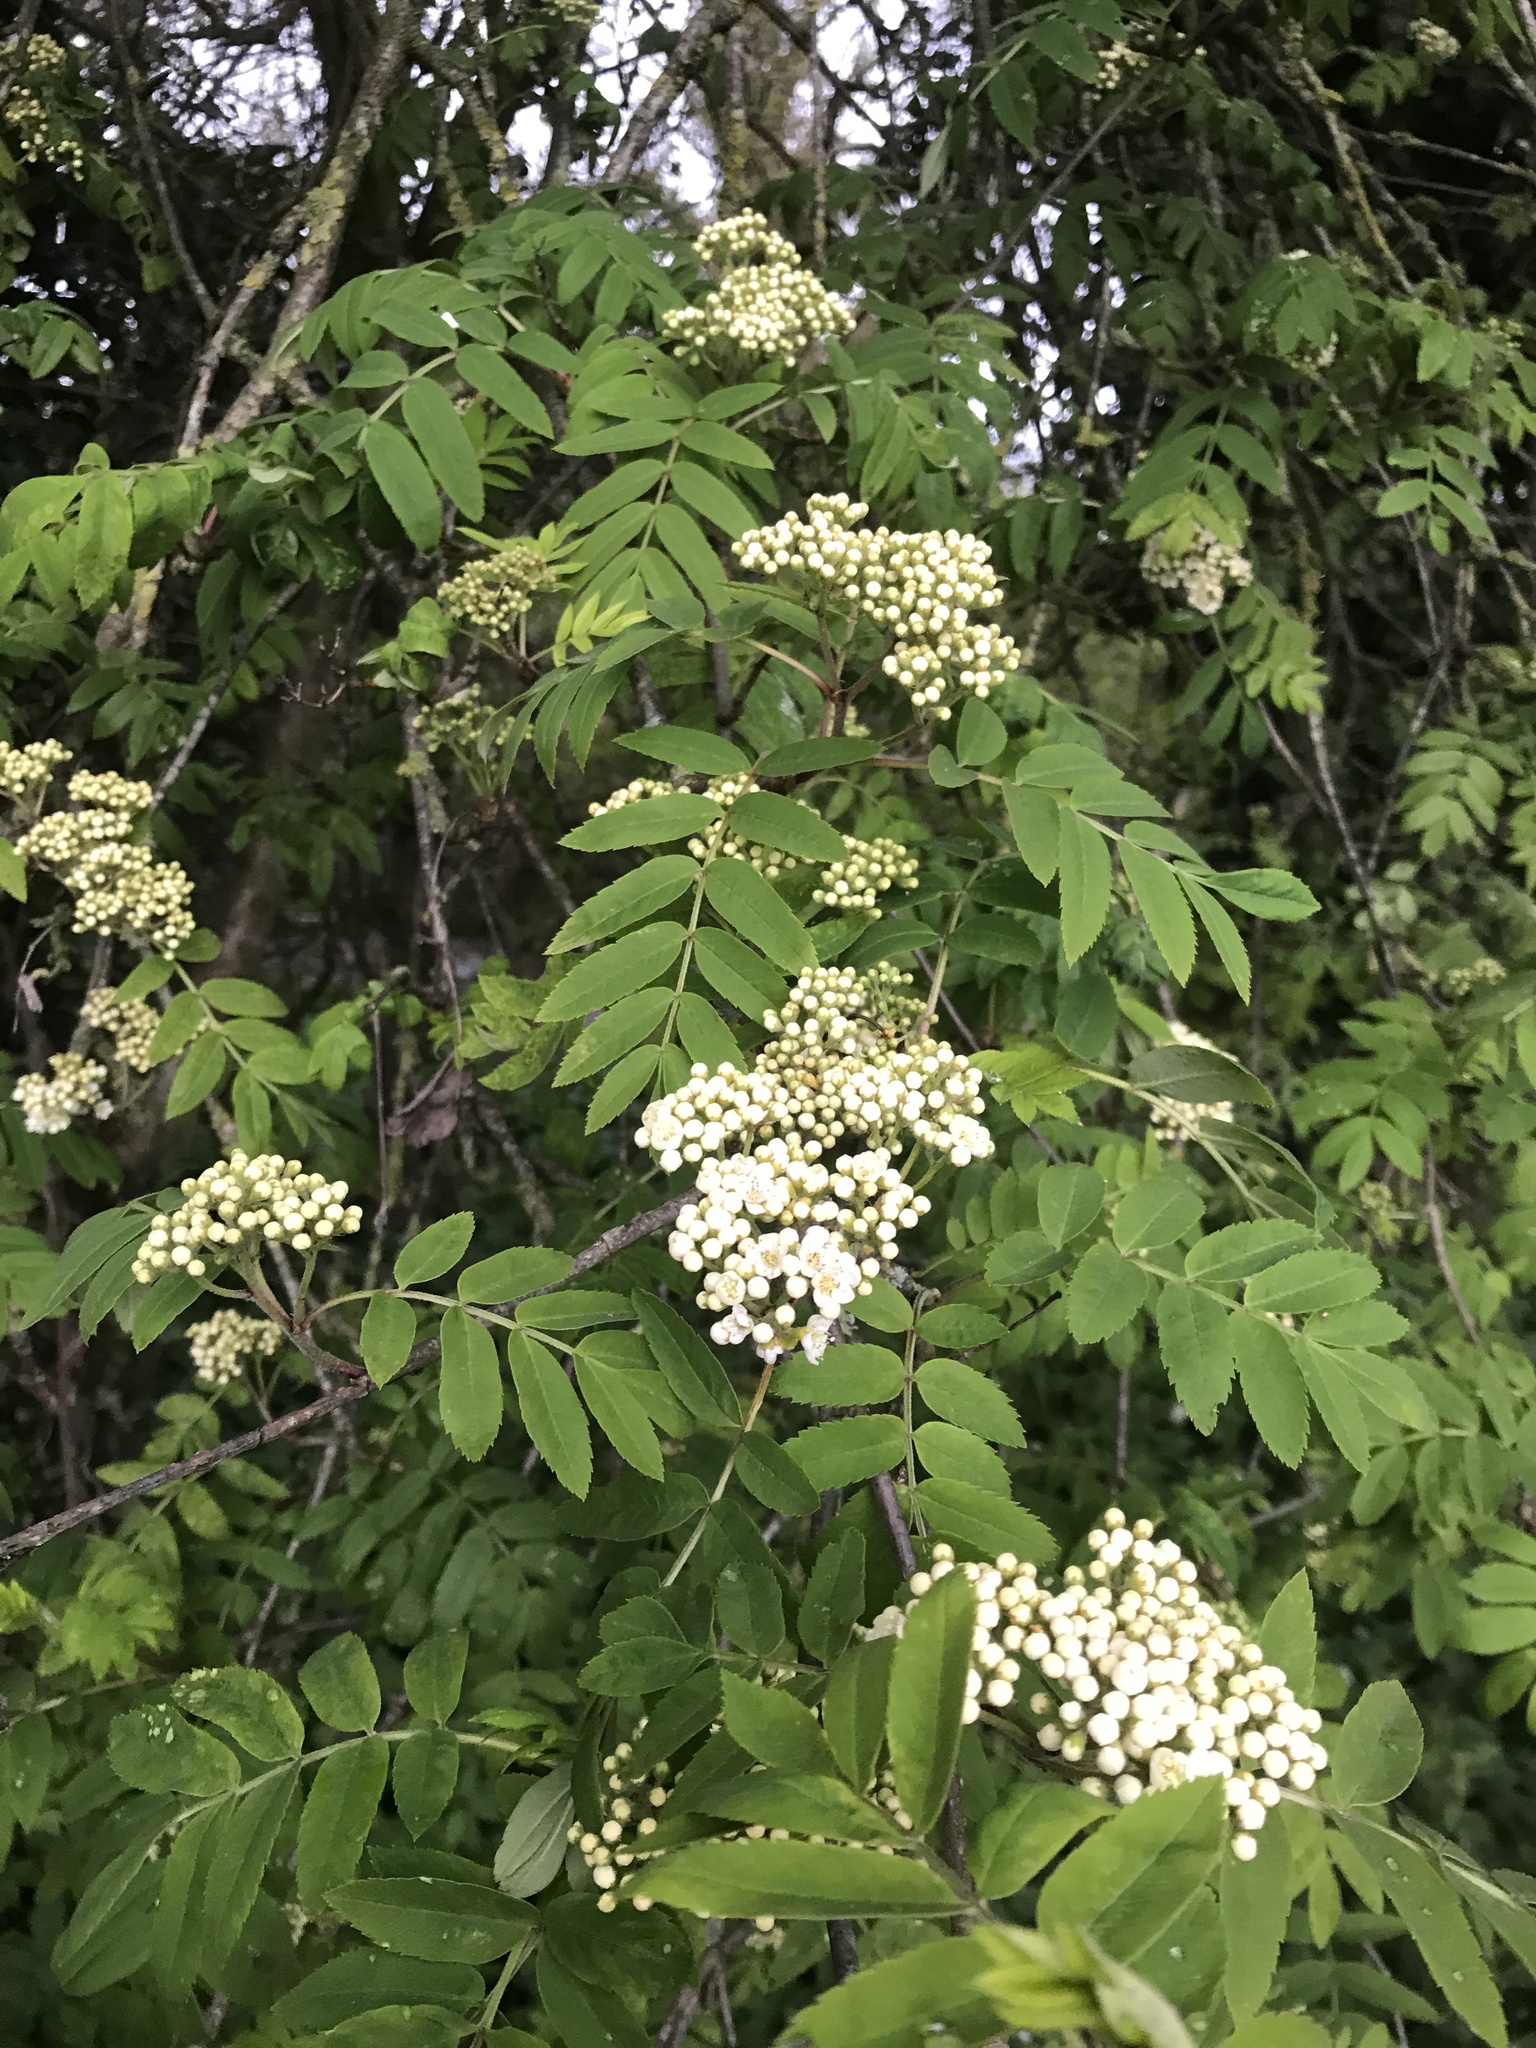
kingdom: Plantae
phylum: Tracheophyta
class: Magnoliopsida
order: Rosales
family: Rosaceae
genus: Sorbus
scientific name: Sorbus aucuparia
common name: Rowan
